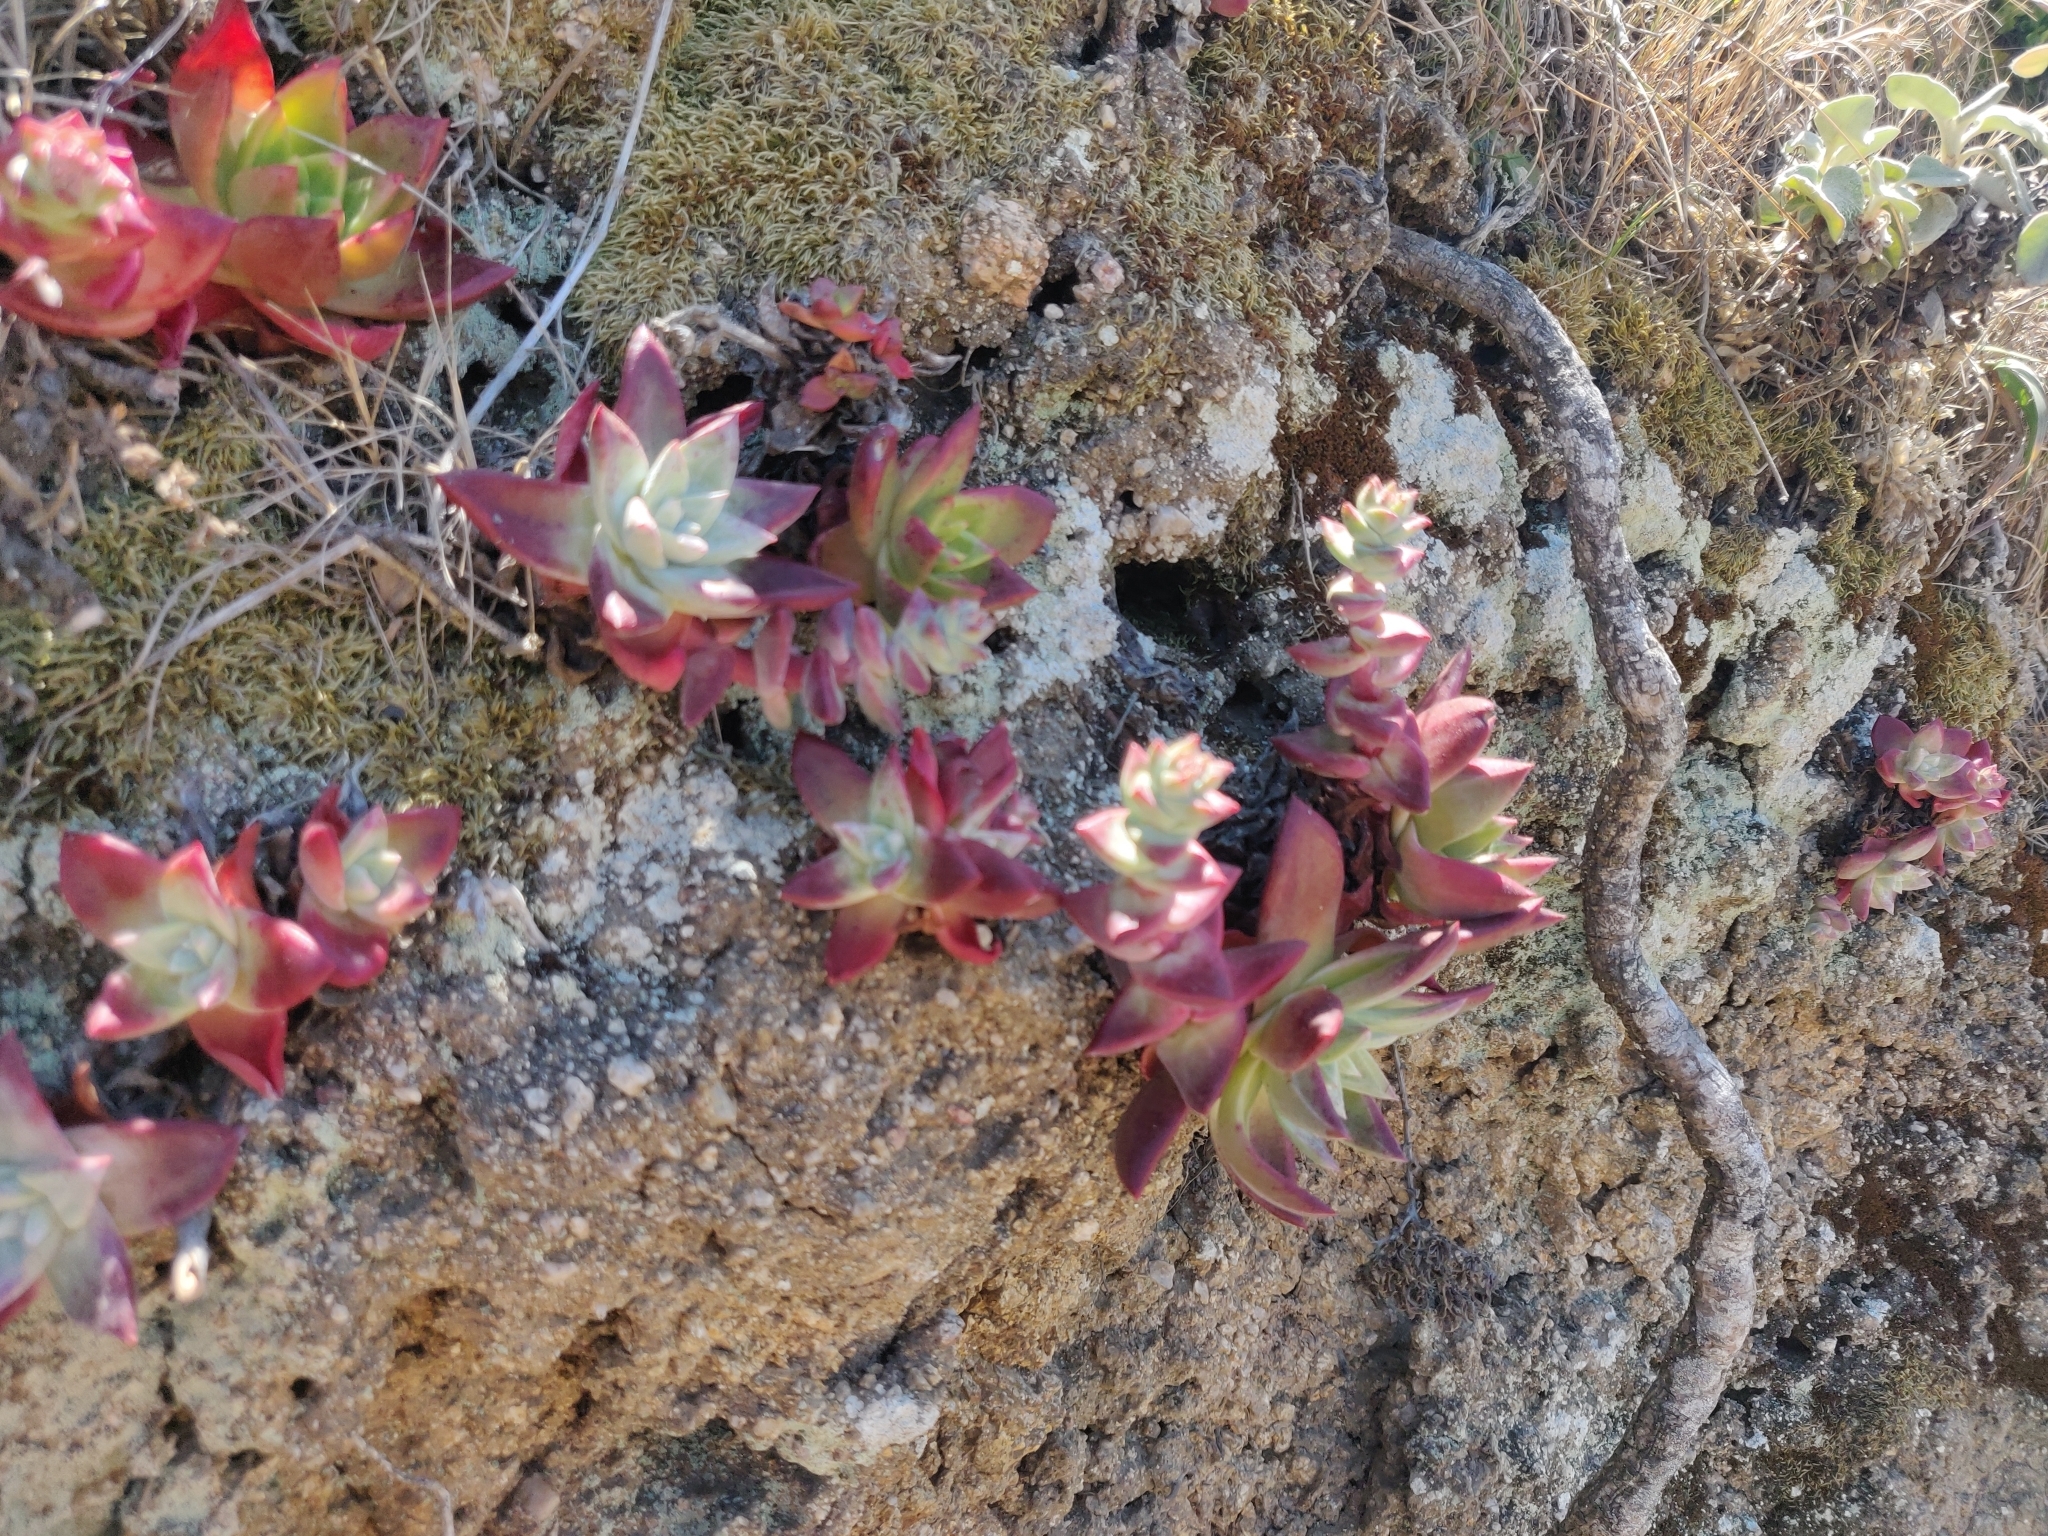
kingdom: Plantae
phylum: Tracheophyta
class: Magnoliopsida
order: Saxifragales
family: Crassulaceae
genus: Dudleya
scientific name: Dudleya farinosa
